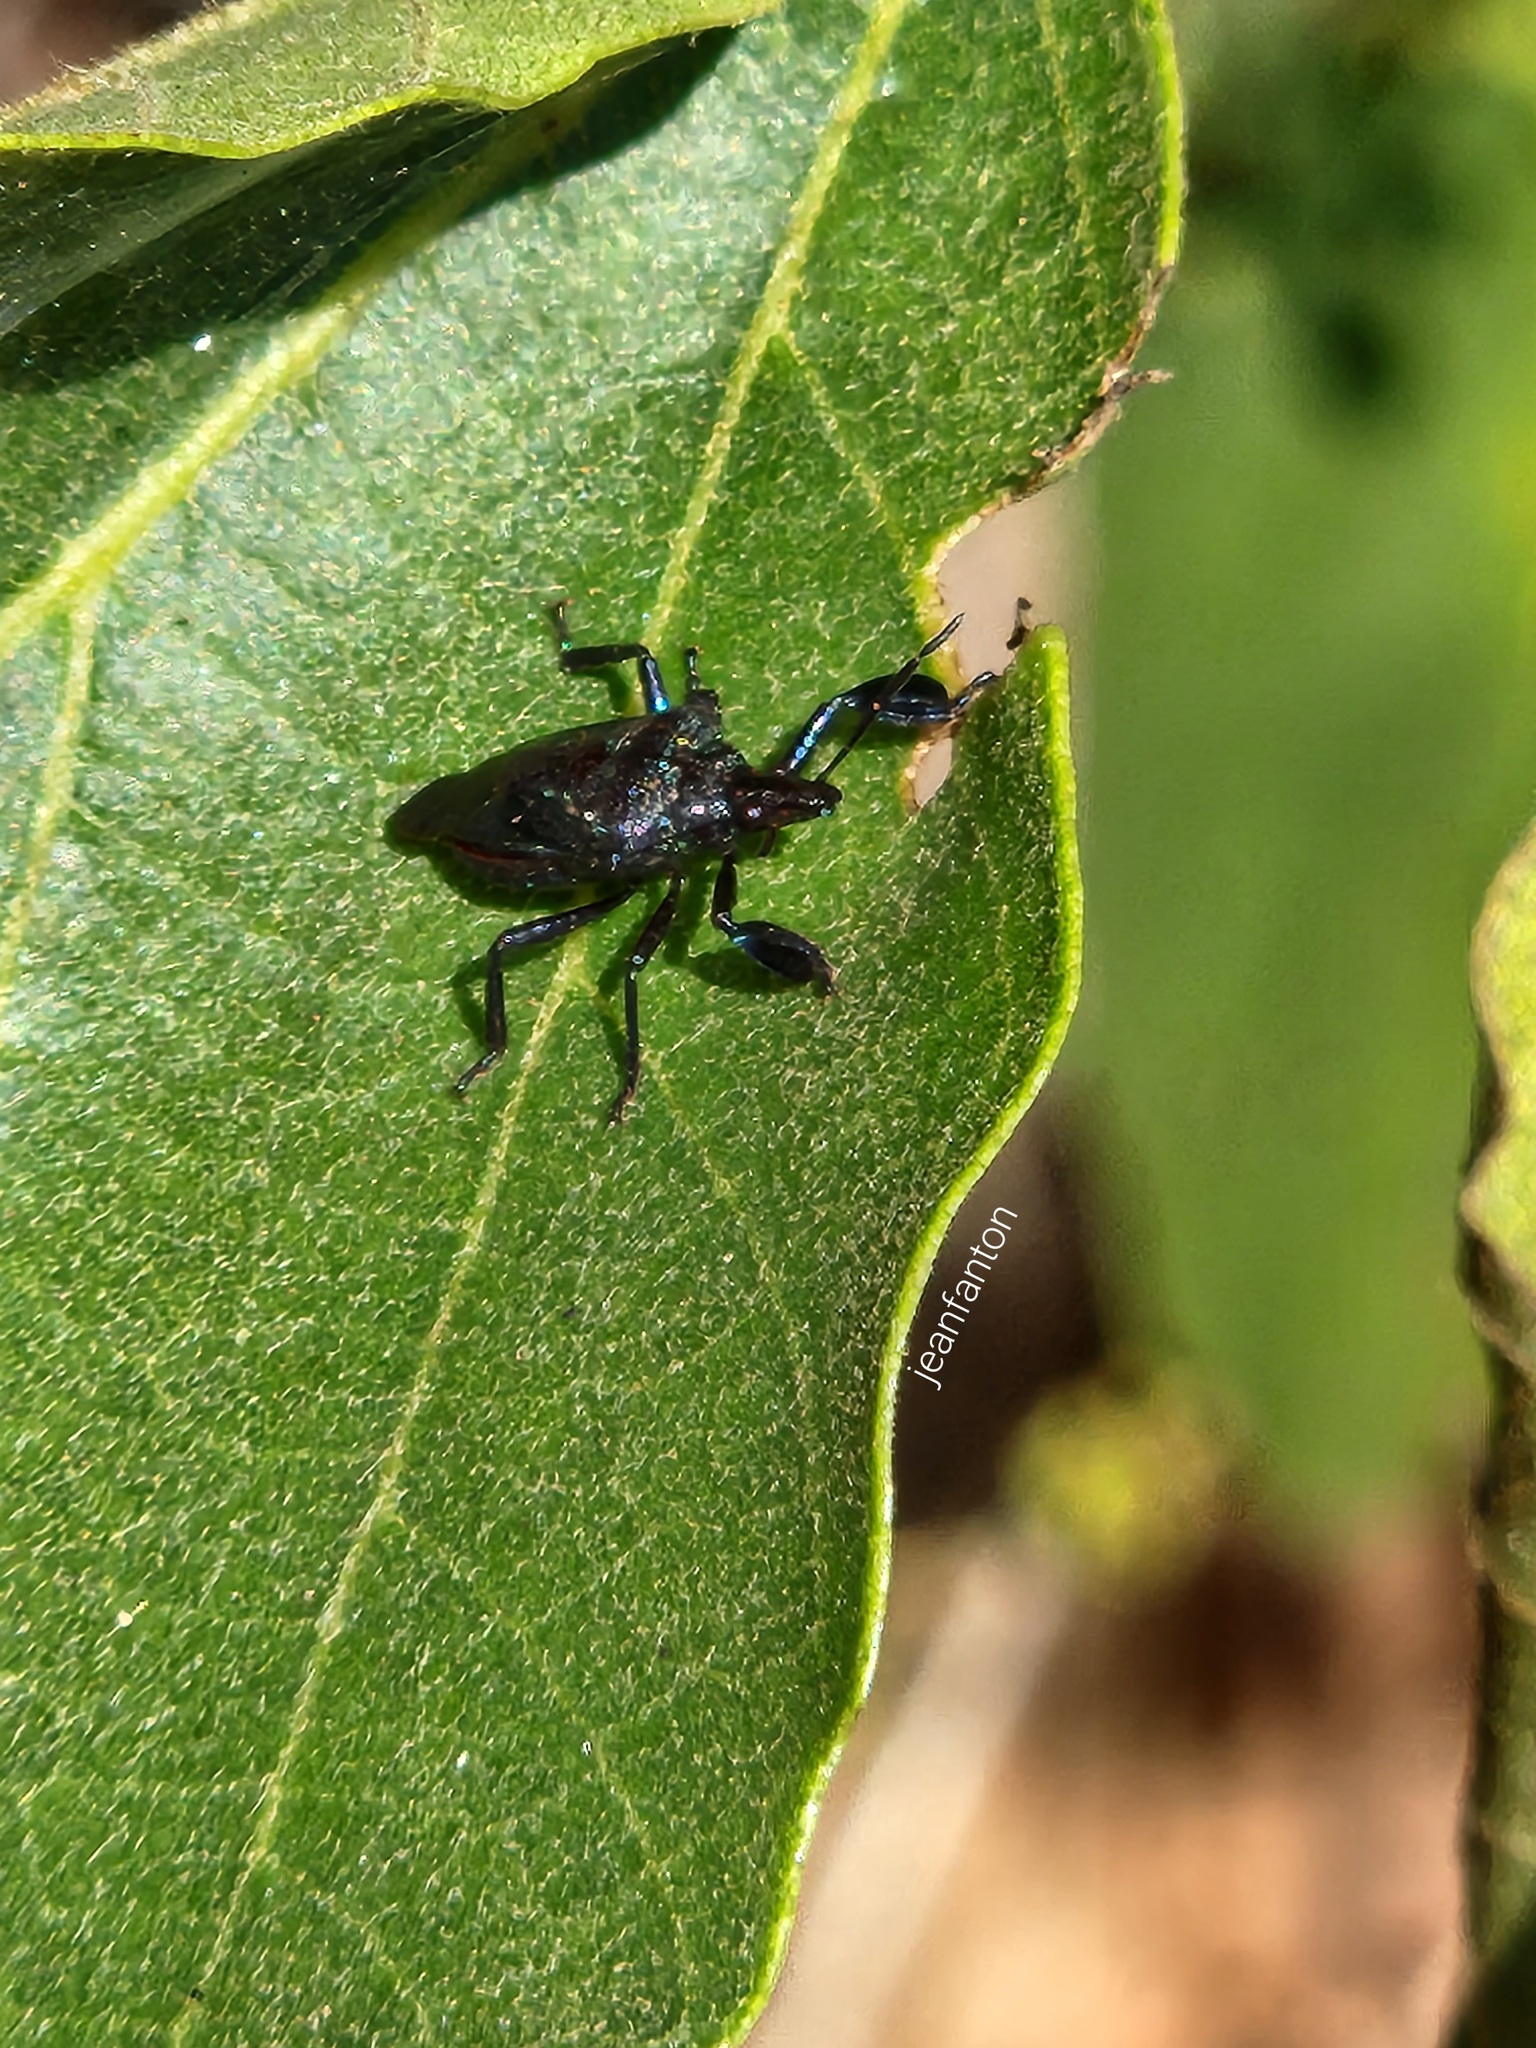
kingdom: Animalia
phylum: Arthropoda
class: Insecta
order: Hemiptera
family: Pentatomidae
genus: Heteroscelis
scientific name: Heteroscelis servillii
